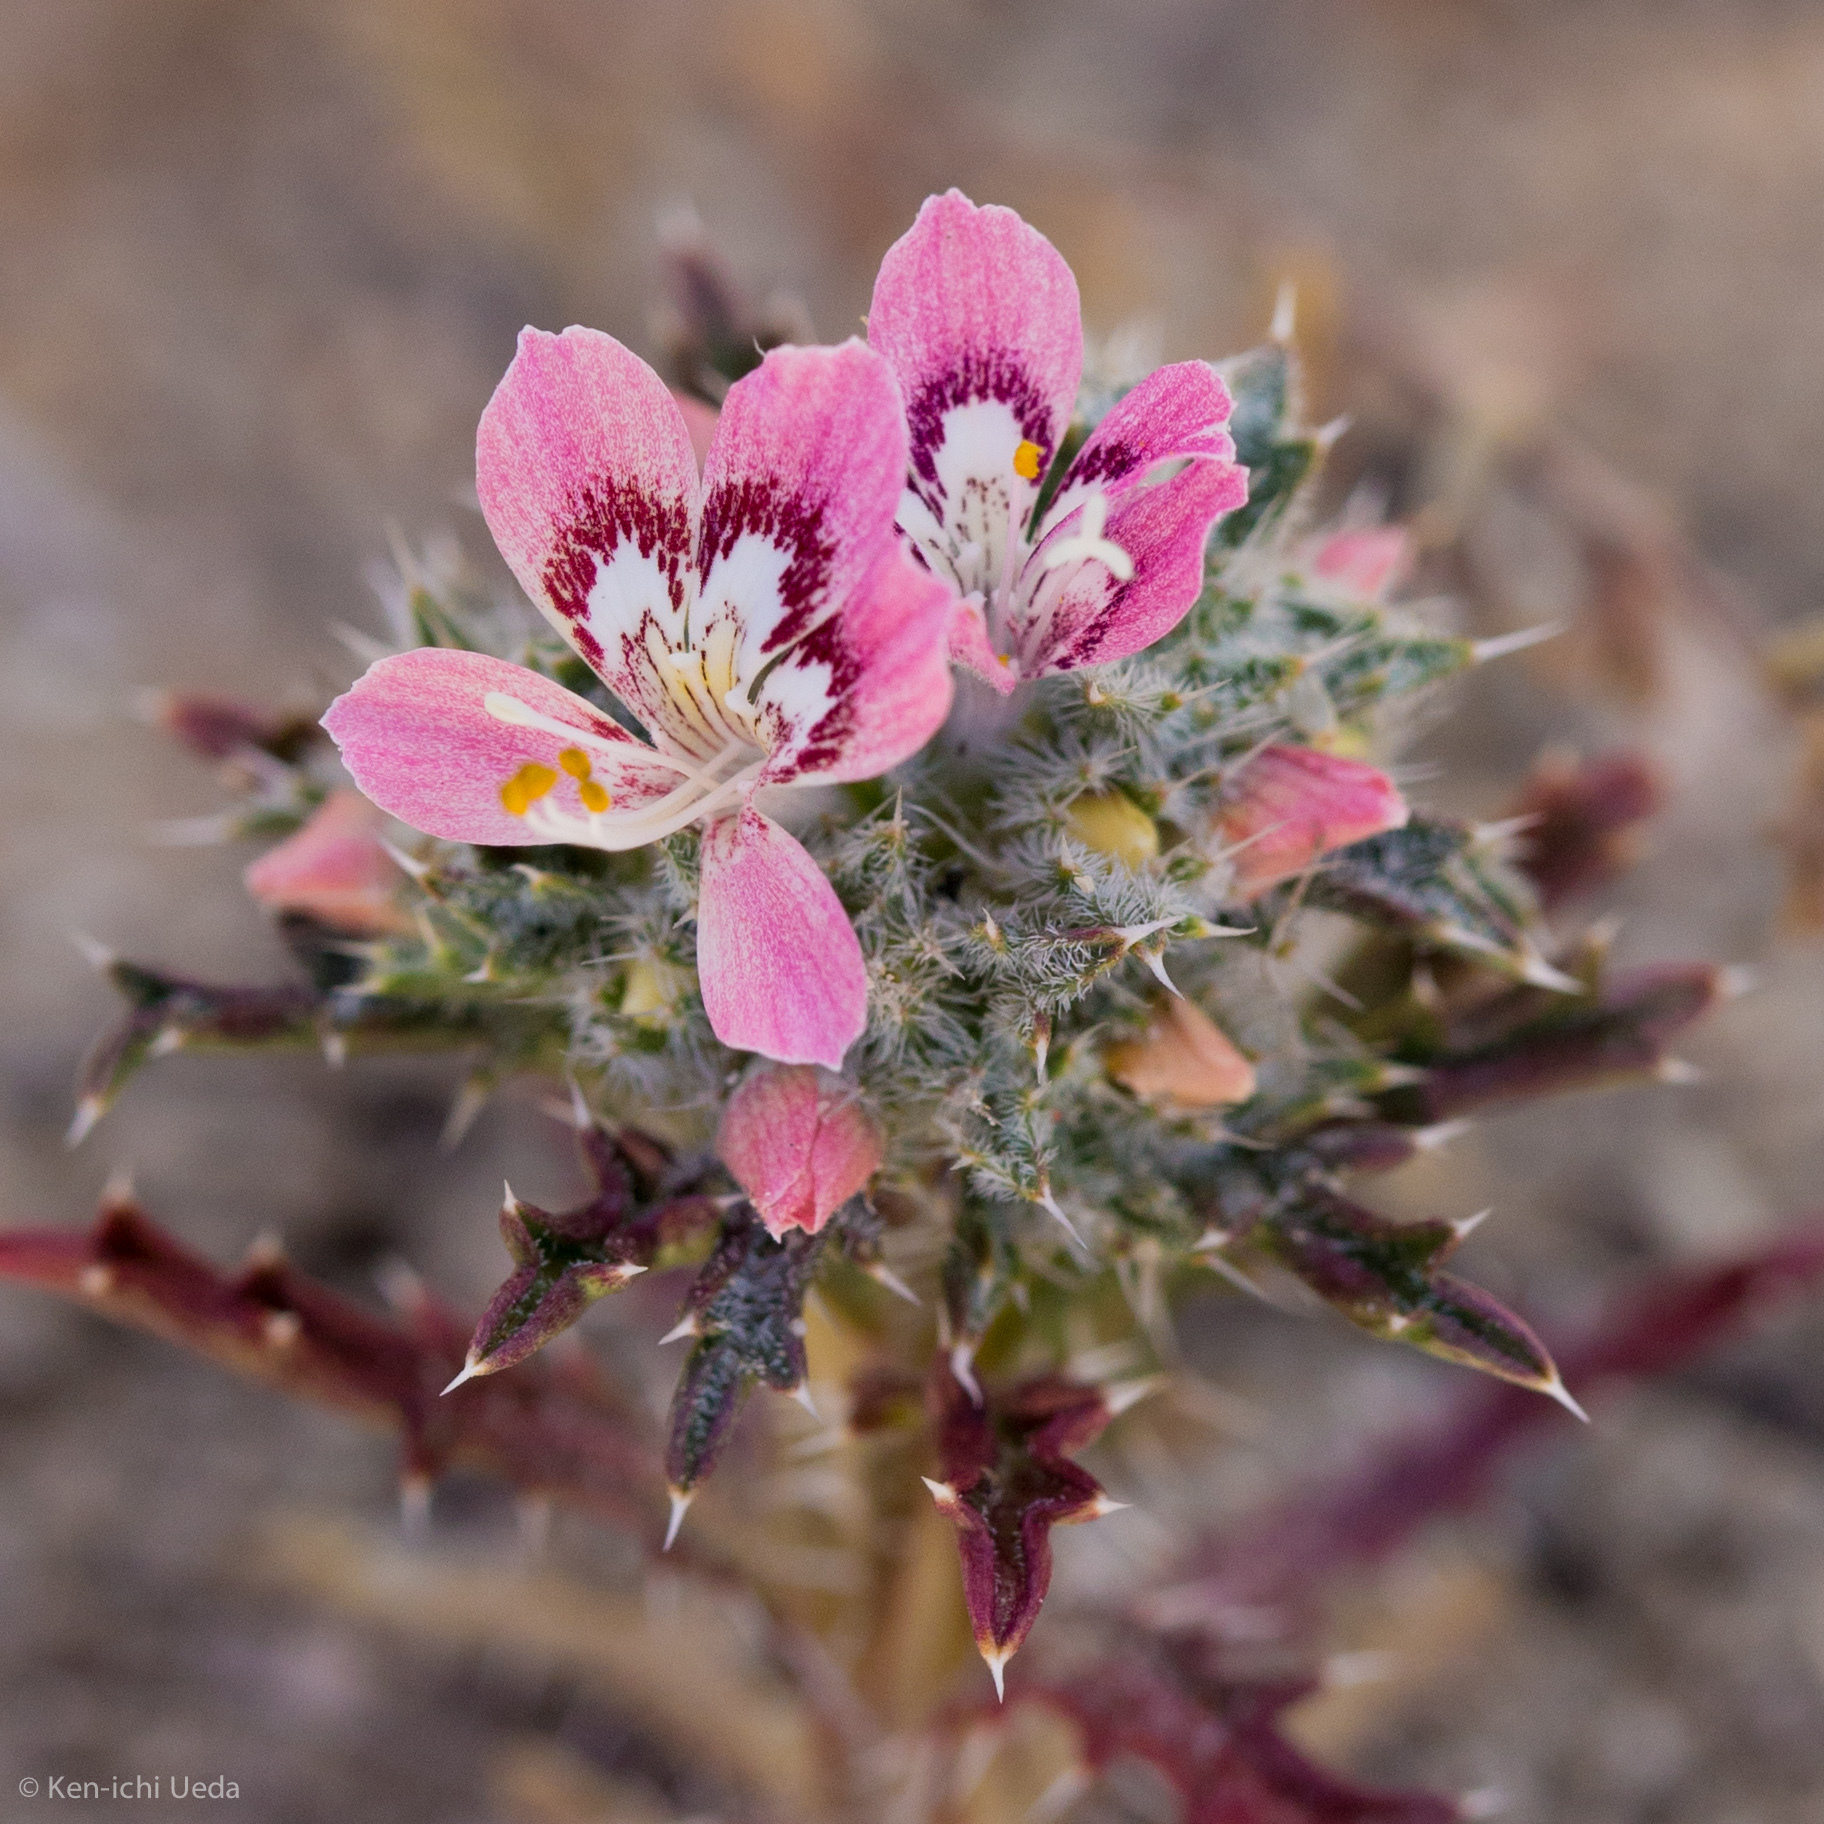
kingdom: Plantae
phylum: Tracheophyta
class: Magnoliopsida
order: Ericales
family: Polemoniaceae
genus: Loeseliastrum
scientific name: Loeseliastrum matthewsii
